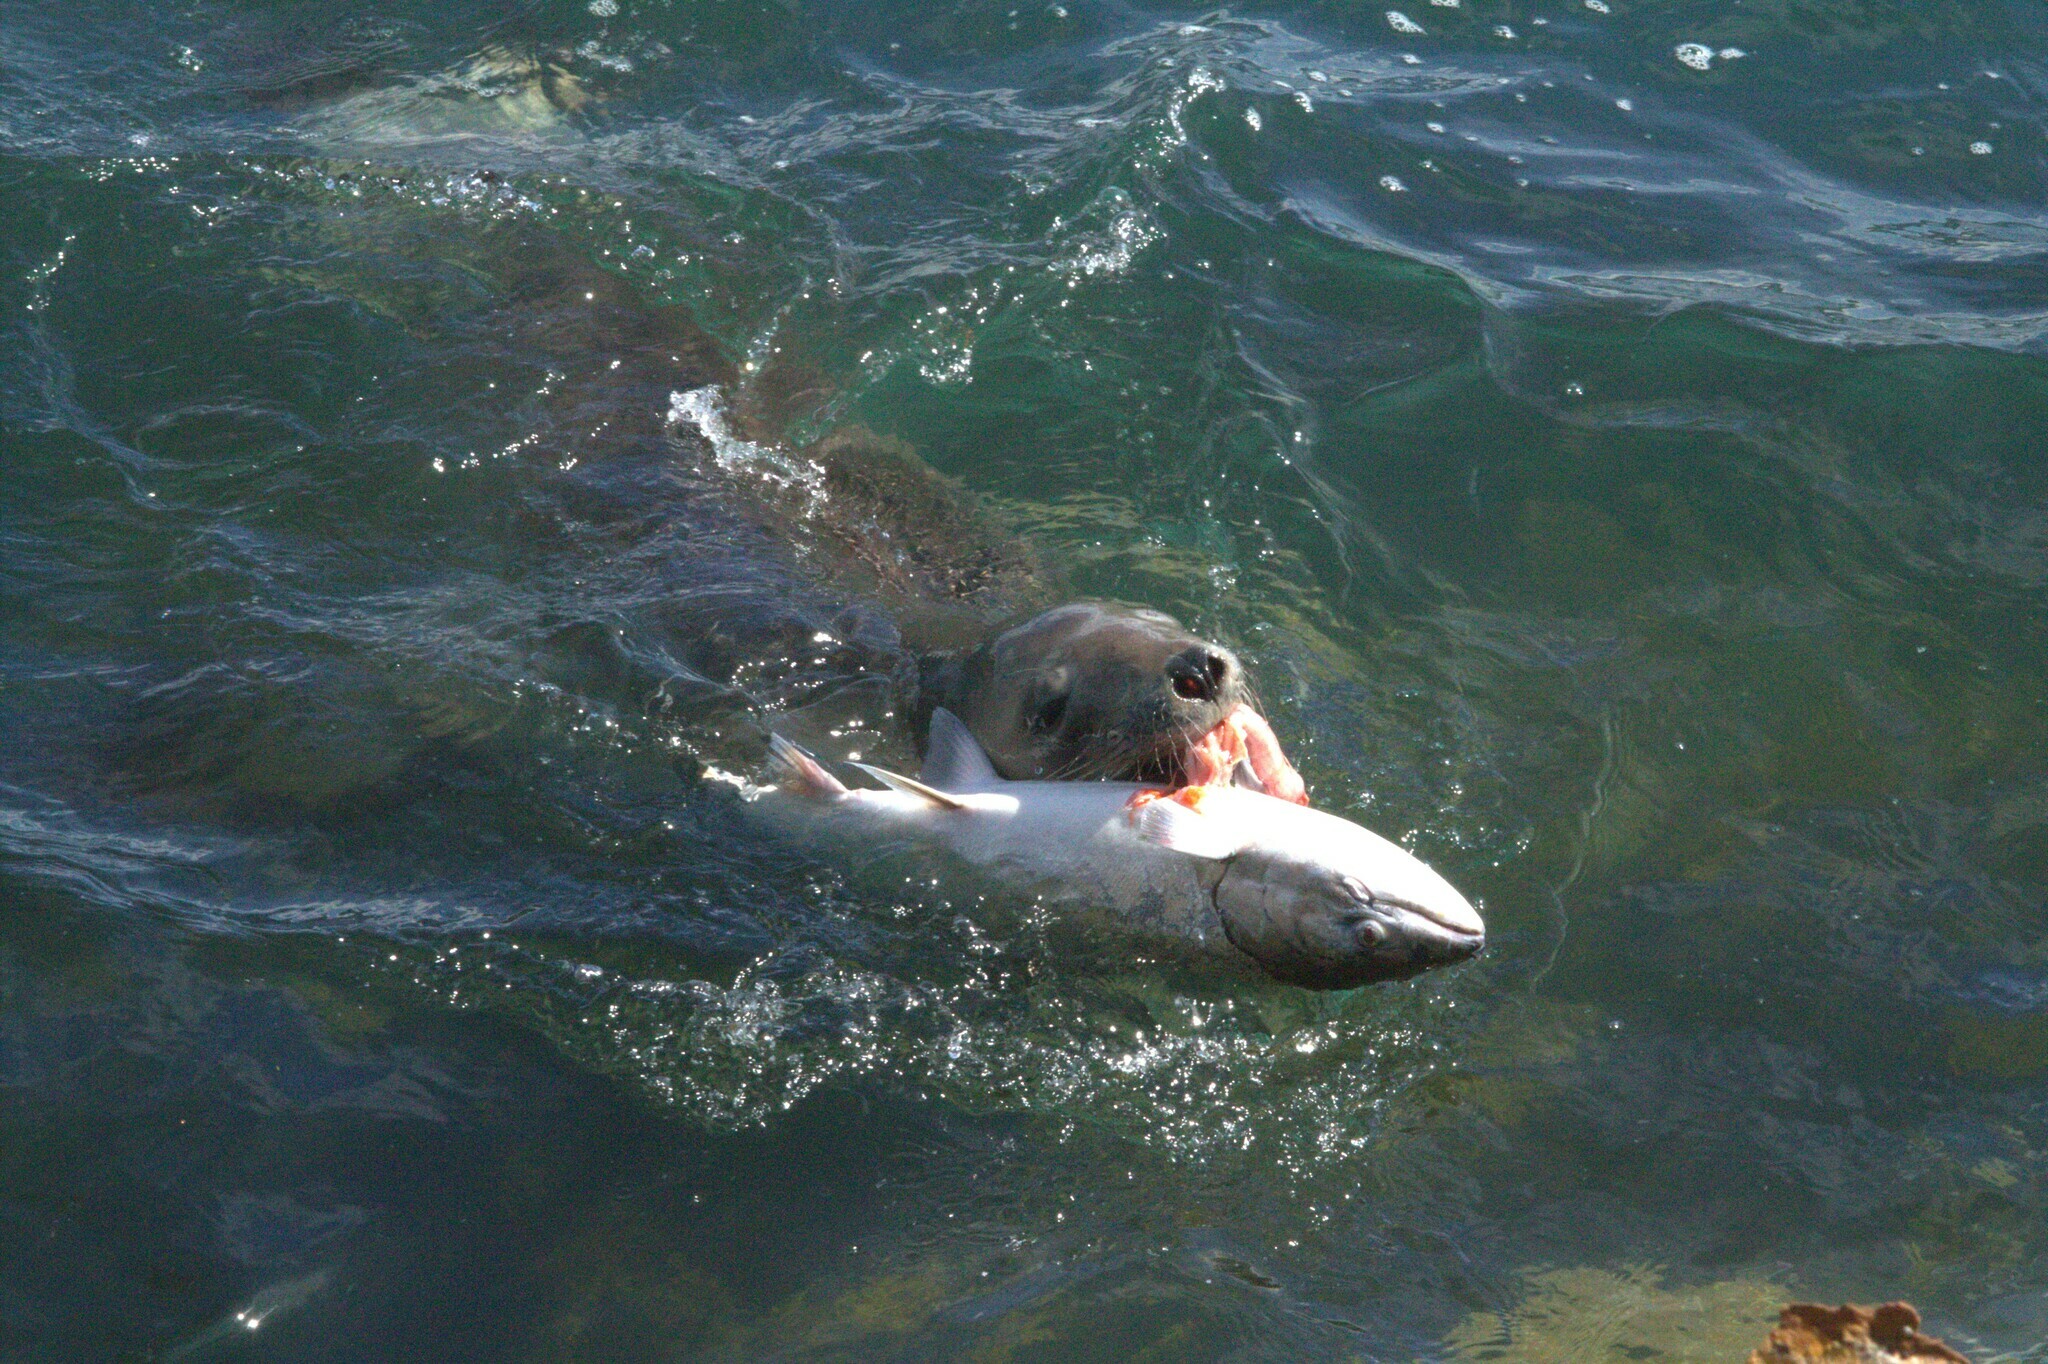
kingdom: Animalia
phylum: Chordata
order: Salmoniformes
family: Salmonidae
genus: Oncorhynchus
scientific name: Oncorhynchus tshawytscha
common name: Chinook salmon
